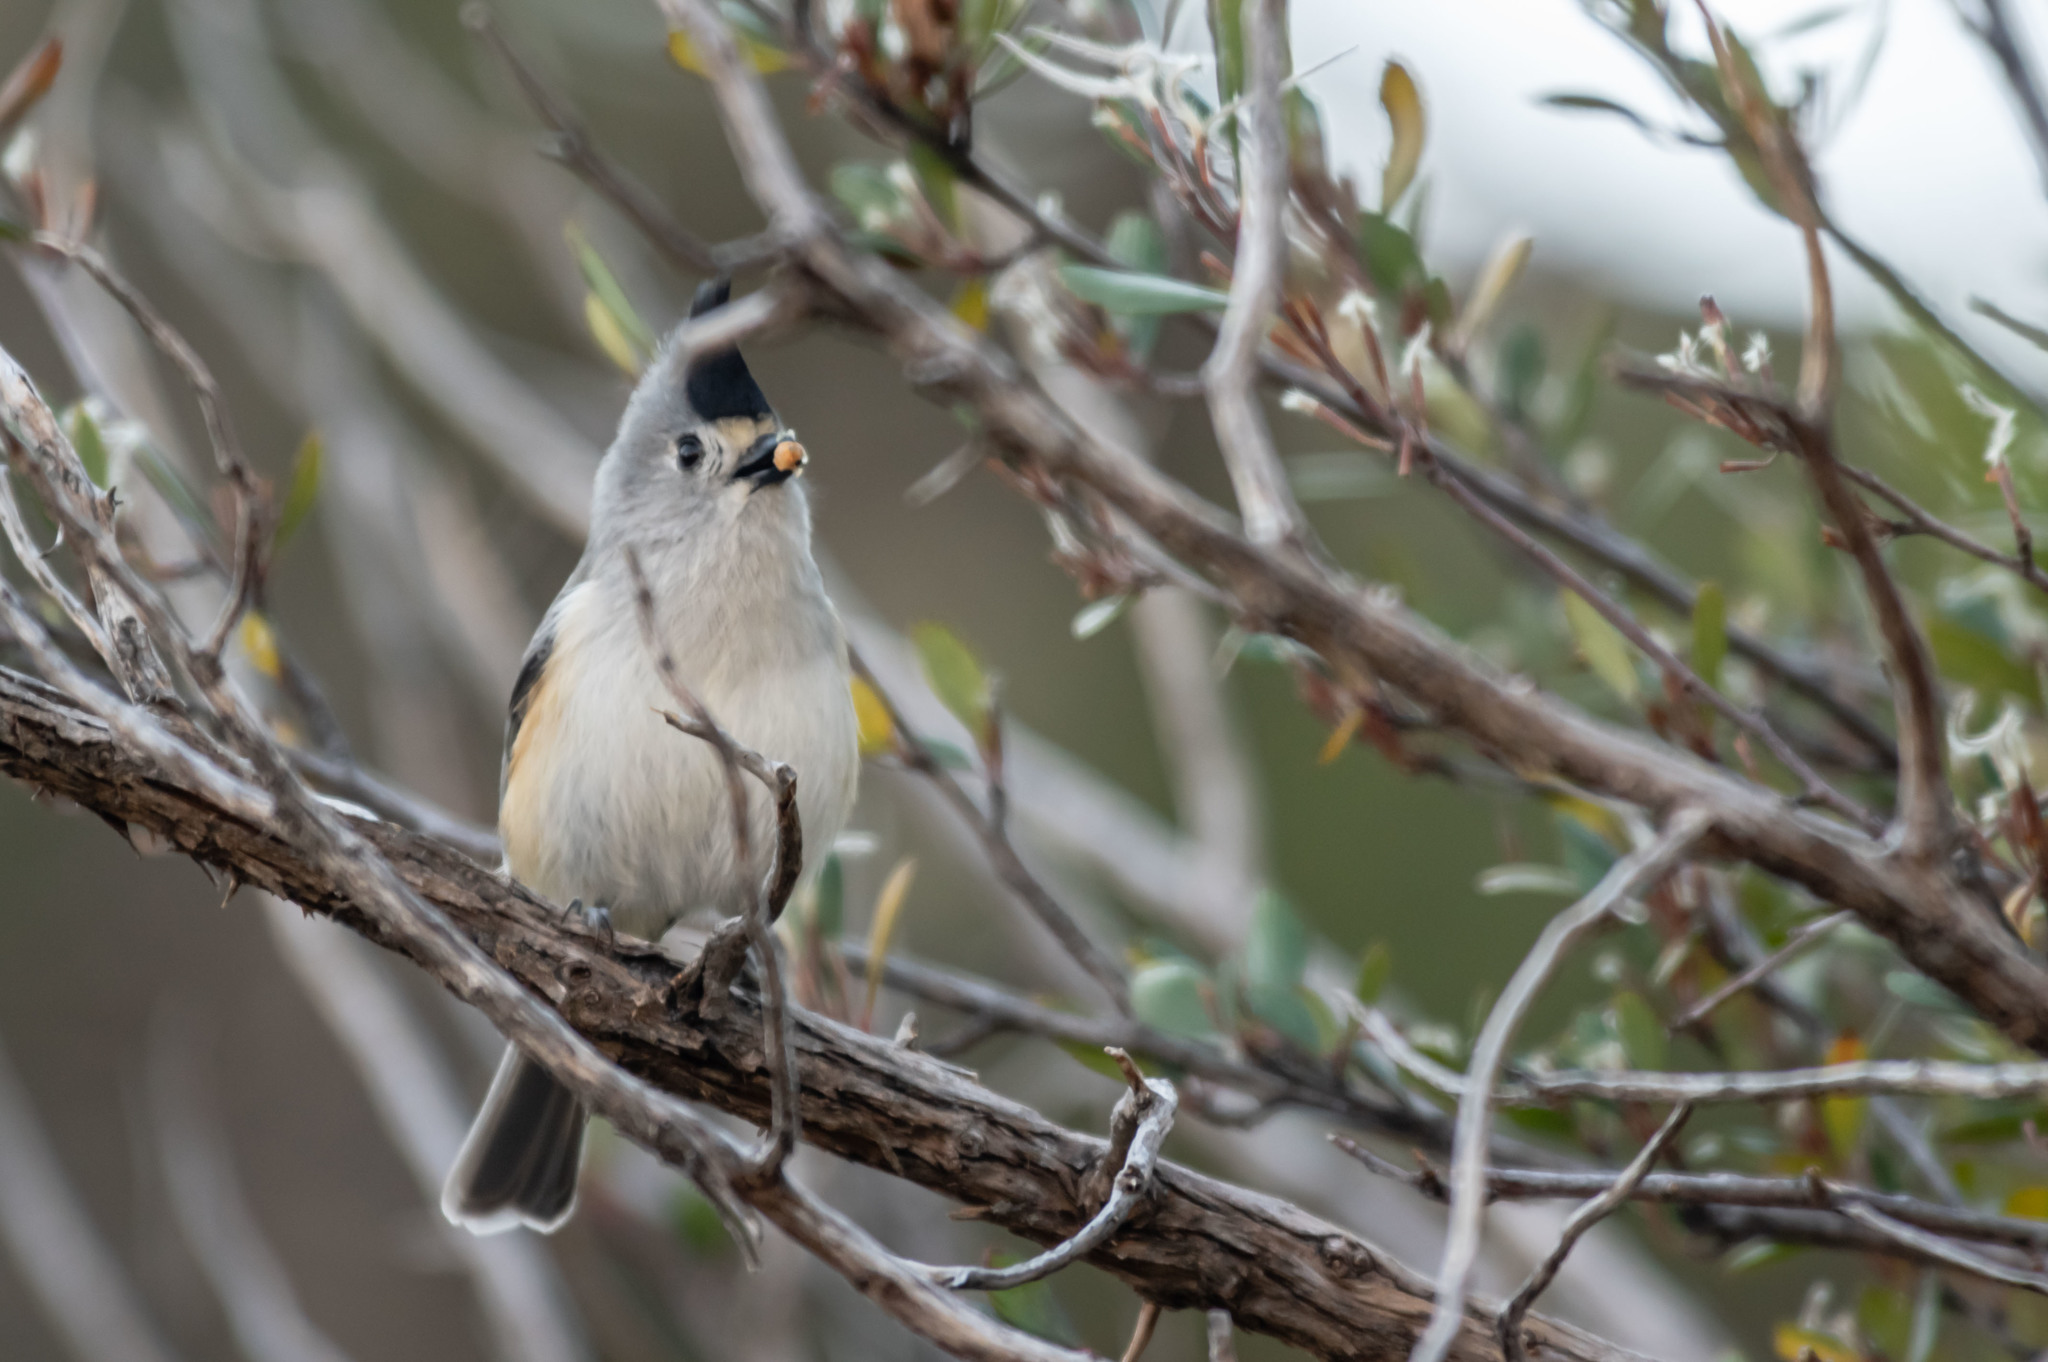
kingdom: Animalia
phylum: Chordata
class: Aves
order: Passeriformes
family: Paridae
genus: Baeolophus
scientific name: Baeolophus atricristatus
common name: Black-crested titmouse
